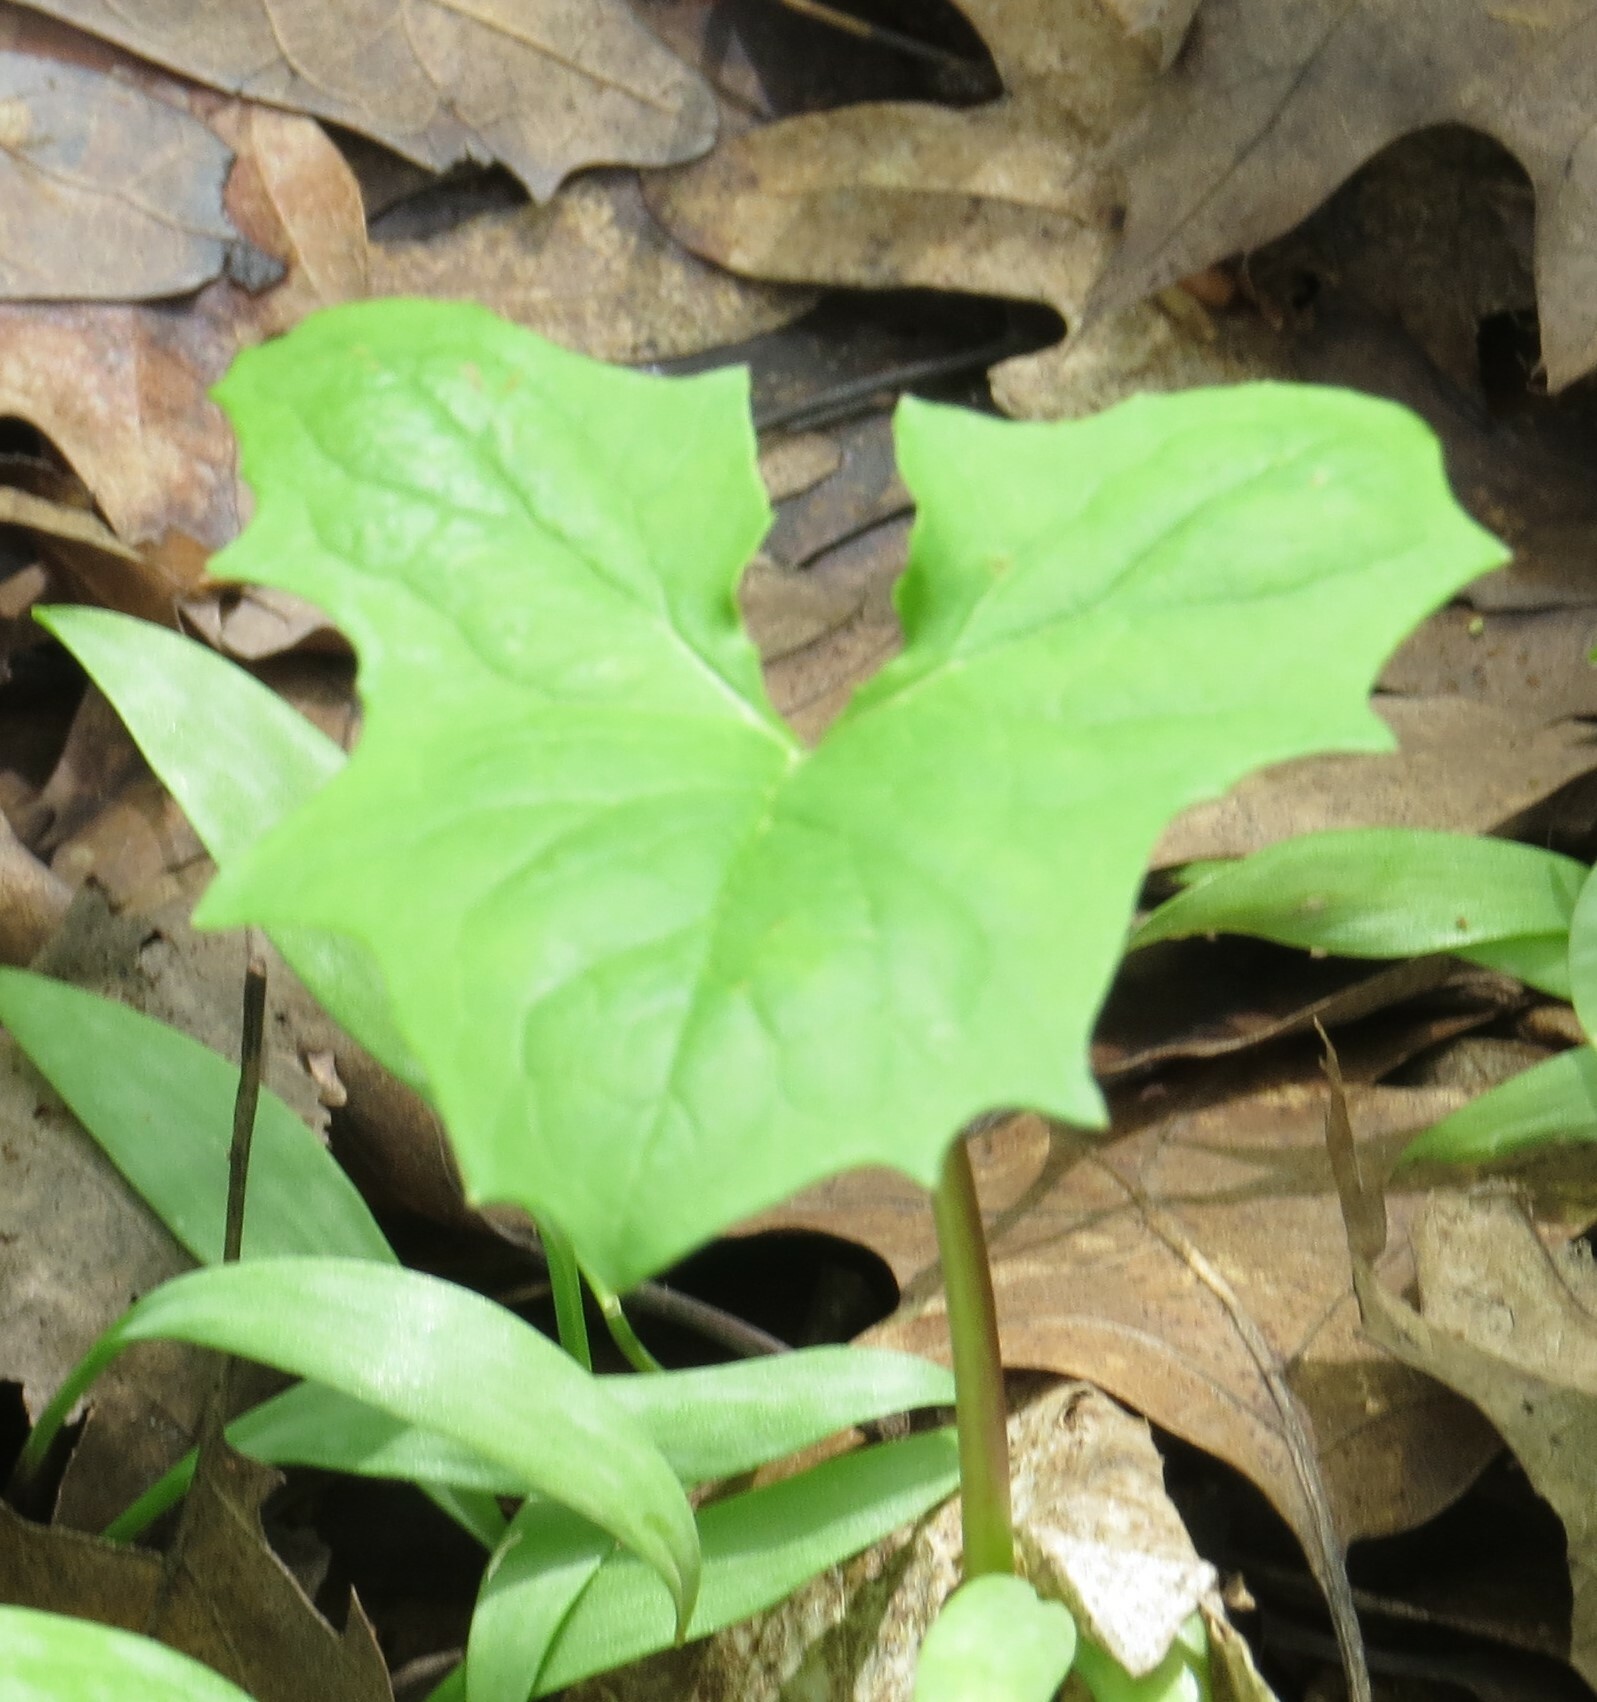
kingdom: Plantae
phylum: Tracheophyta
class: Magnoliopsida
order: Asterales
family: Asteraceae
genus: Nabalus
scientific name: Nabalus albus
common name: White rattlesnakeroot
